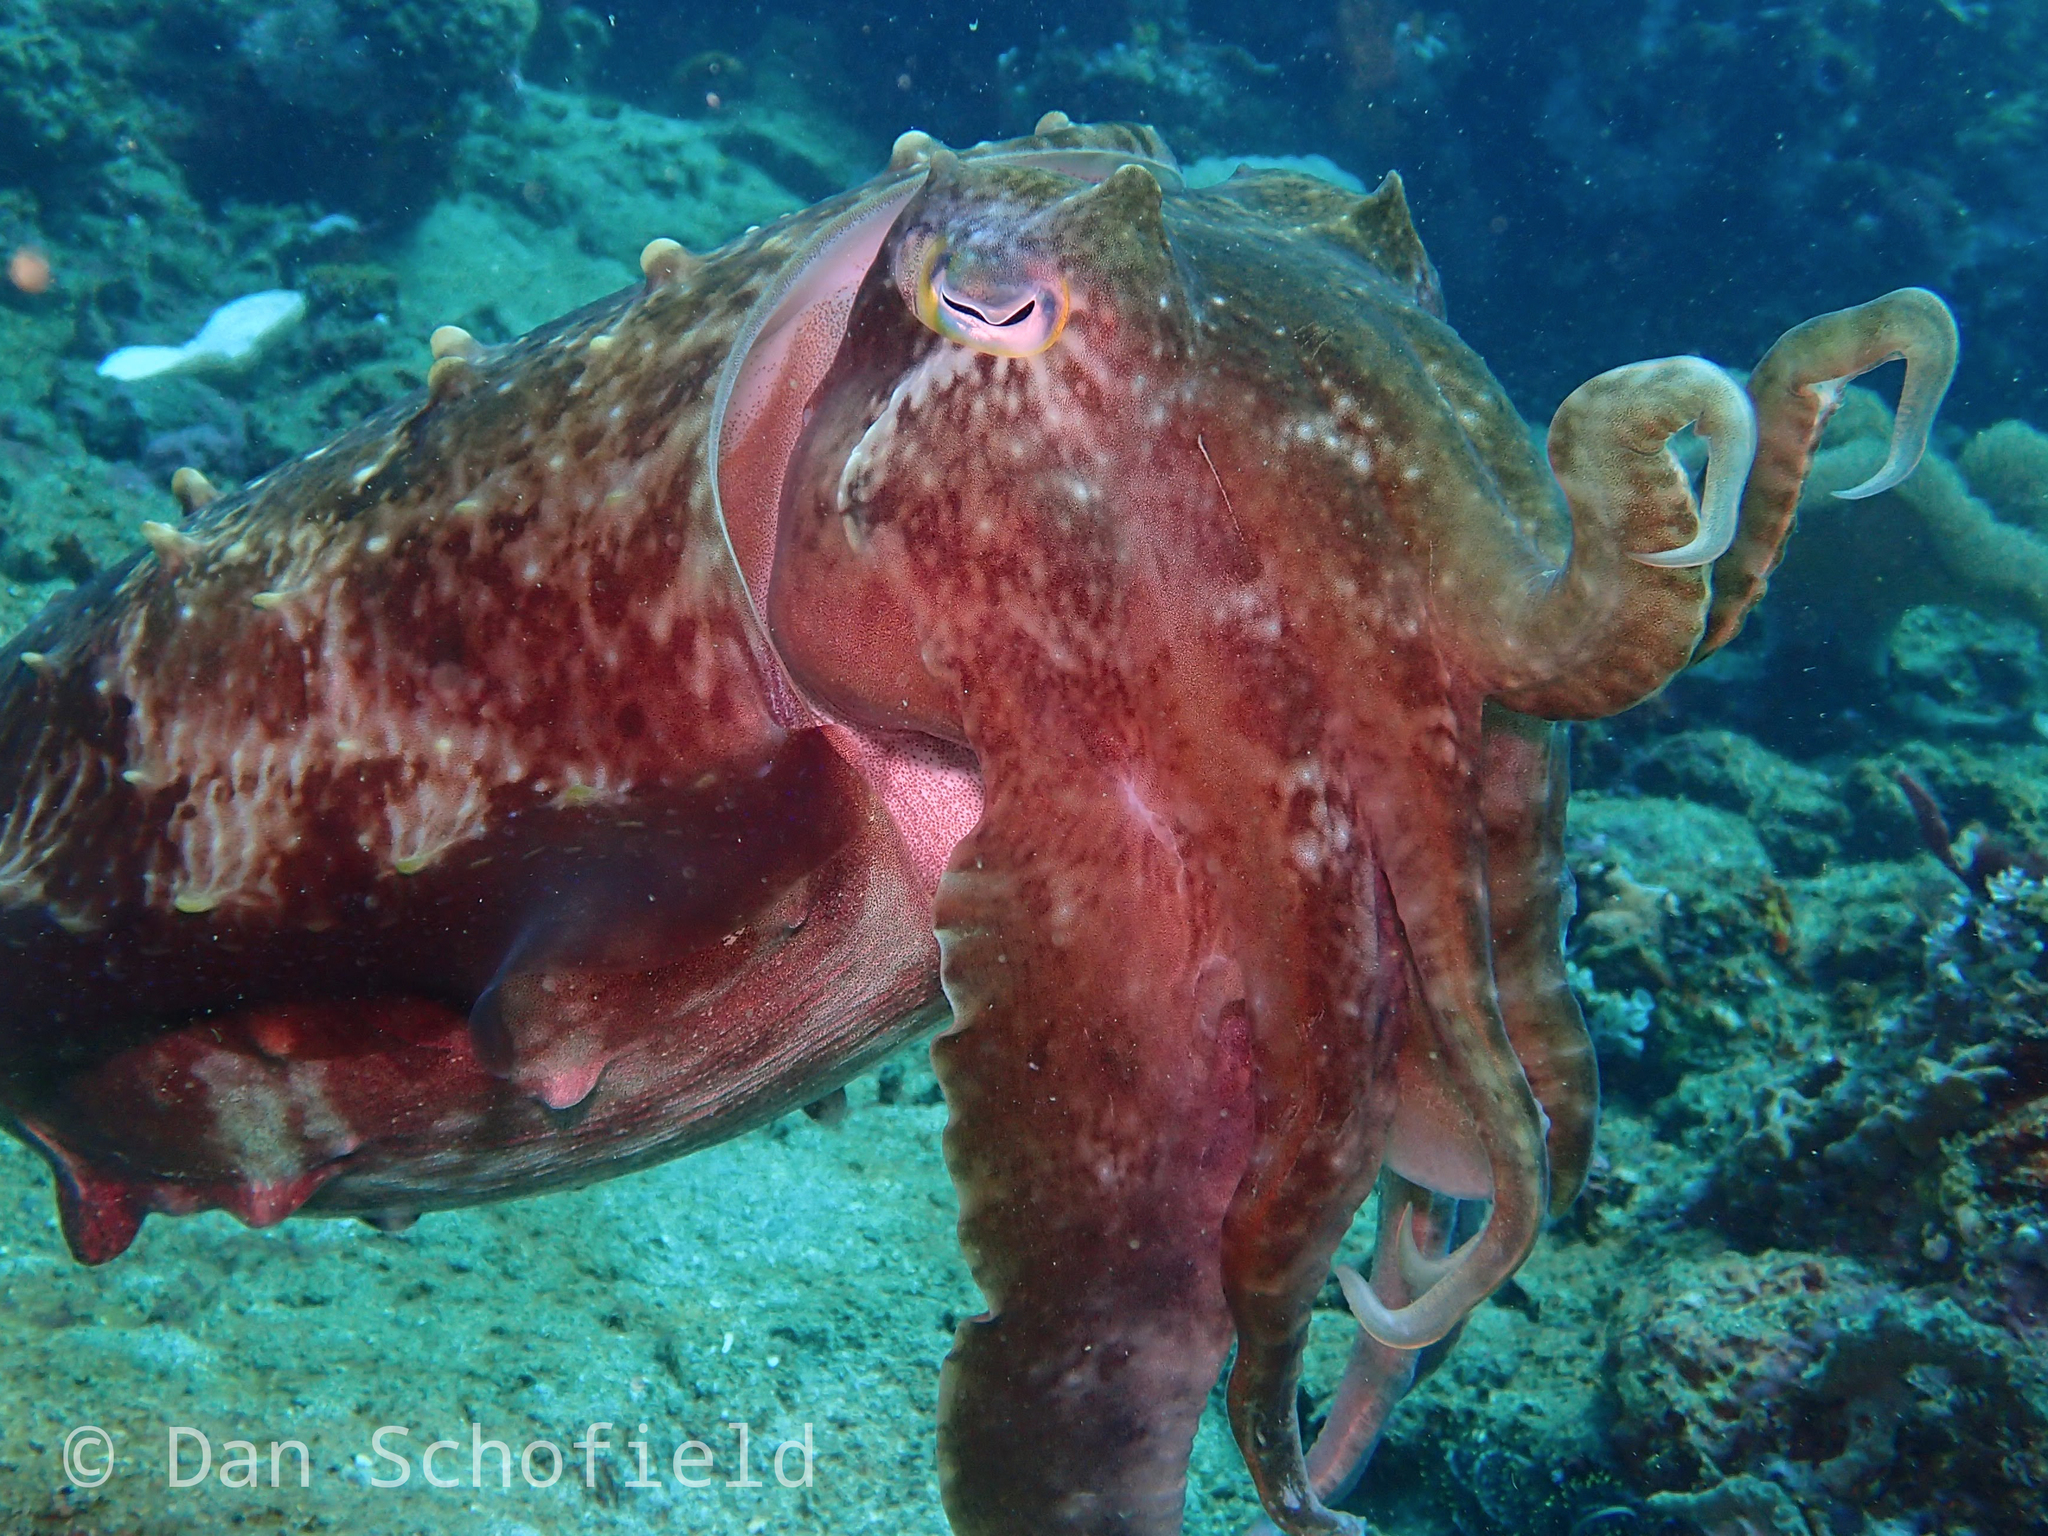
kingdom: Animalia
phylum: Mollusca
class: Cephalopoda
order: Sepiida
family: Sepiidae
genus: Ascarosepion
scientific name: Ascarosepion latimanus
